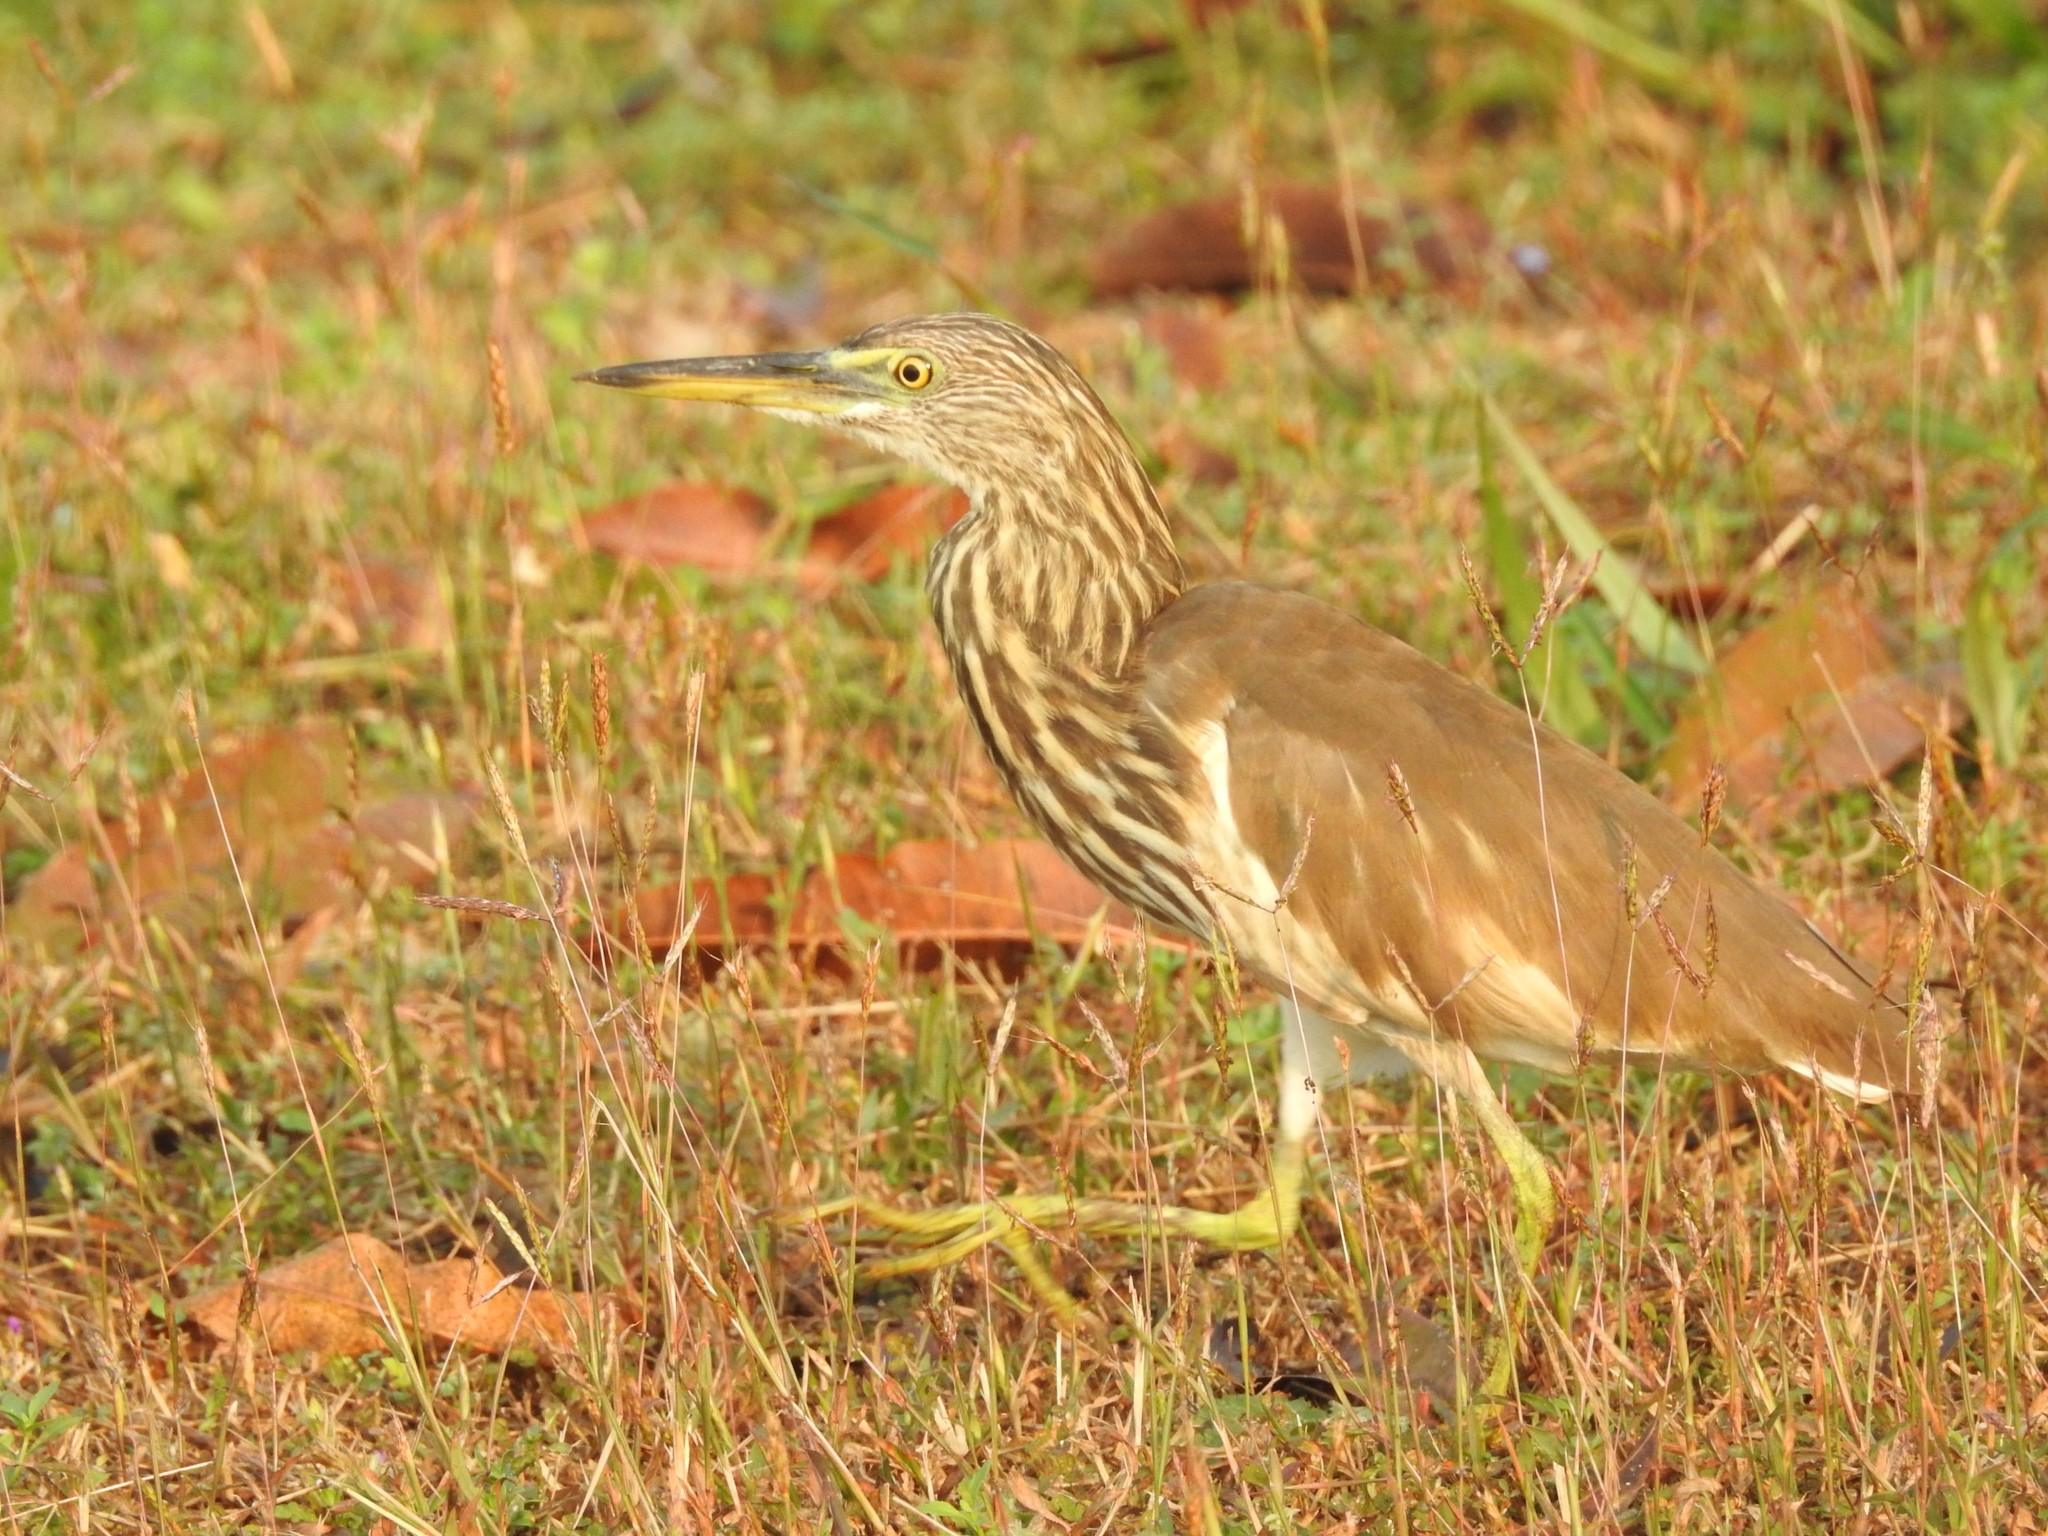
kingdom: Animalia
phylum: Chordata
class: Aves
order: Pelecaniformes
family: Ardeidae
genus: Ardeola
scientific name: Ardeola grayii
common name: Indian pond heron
